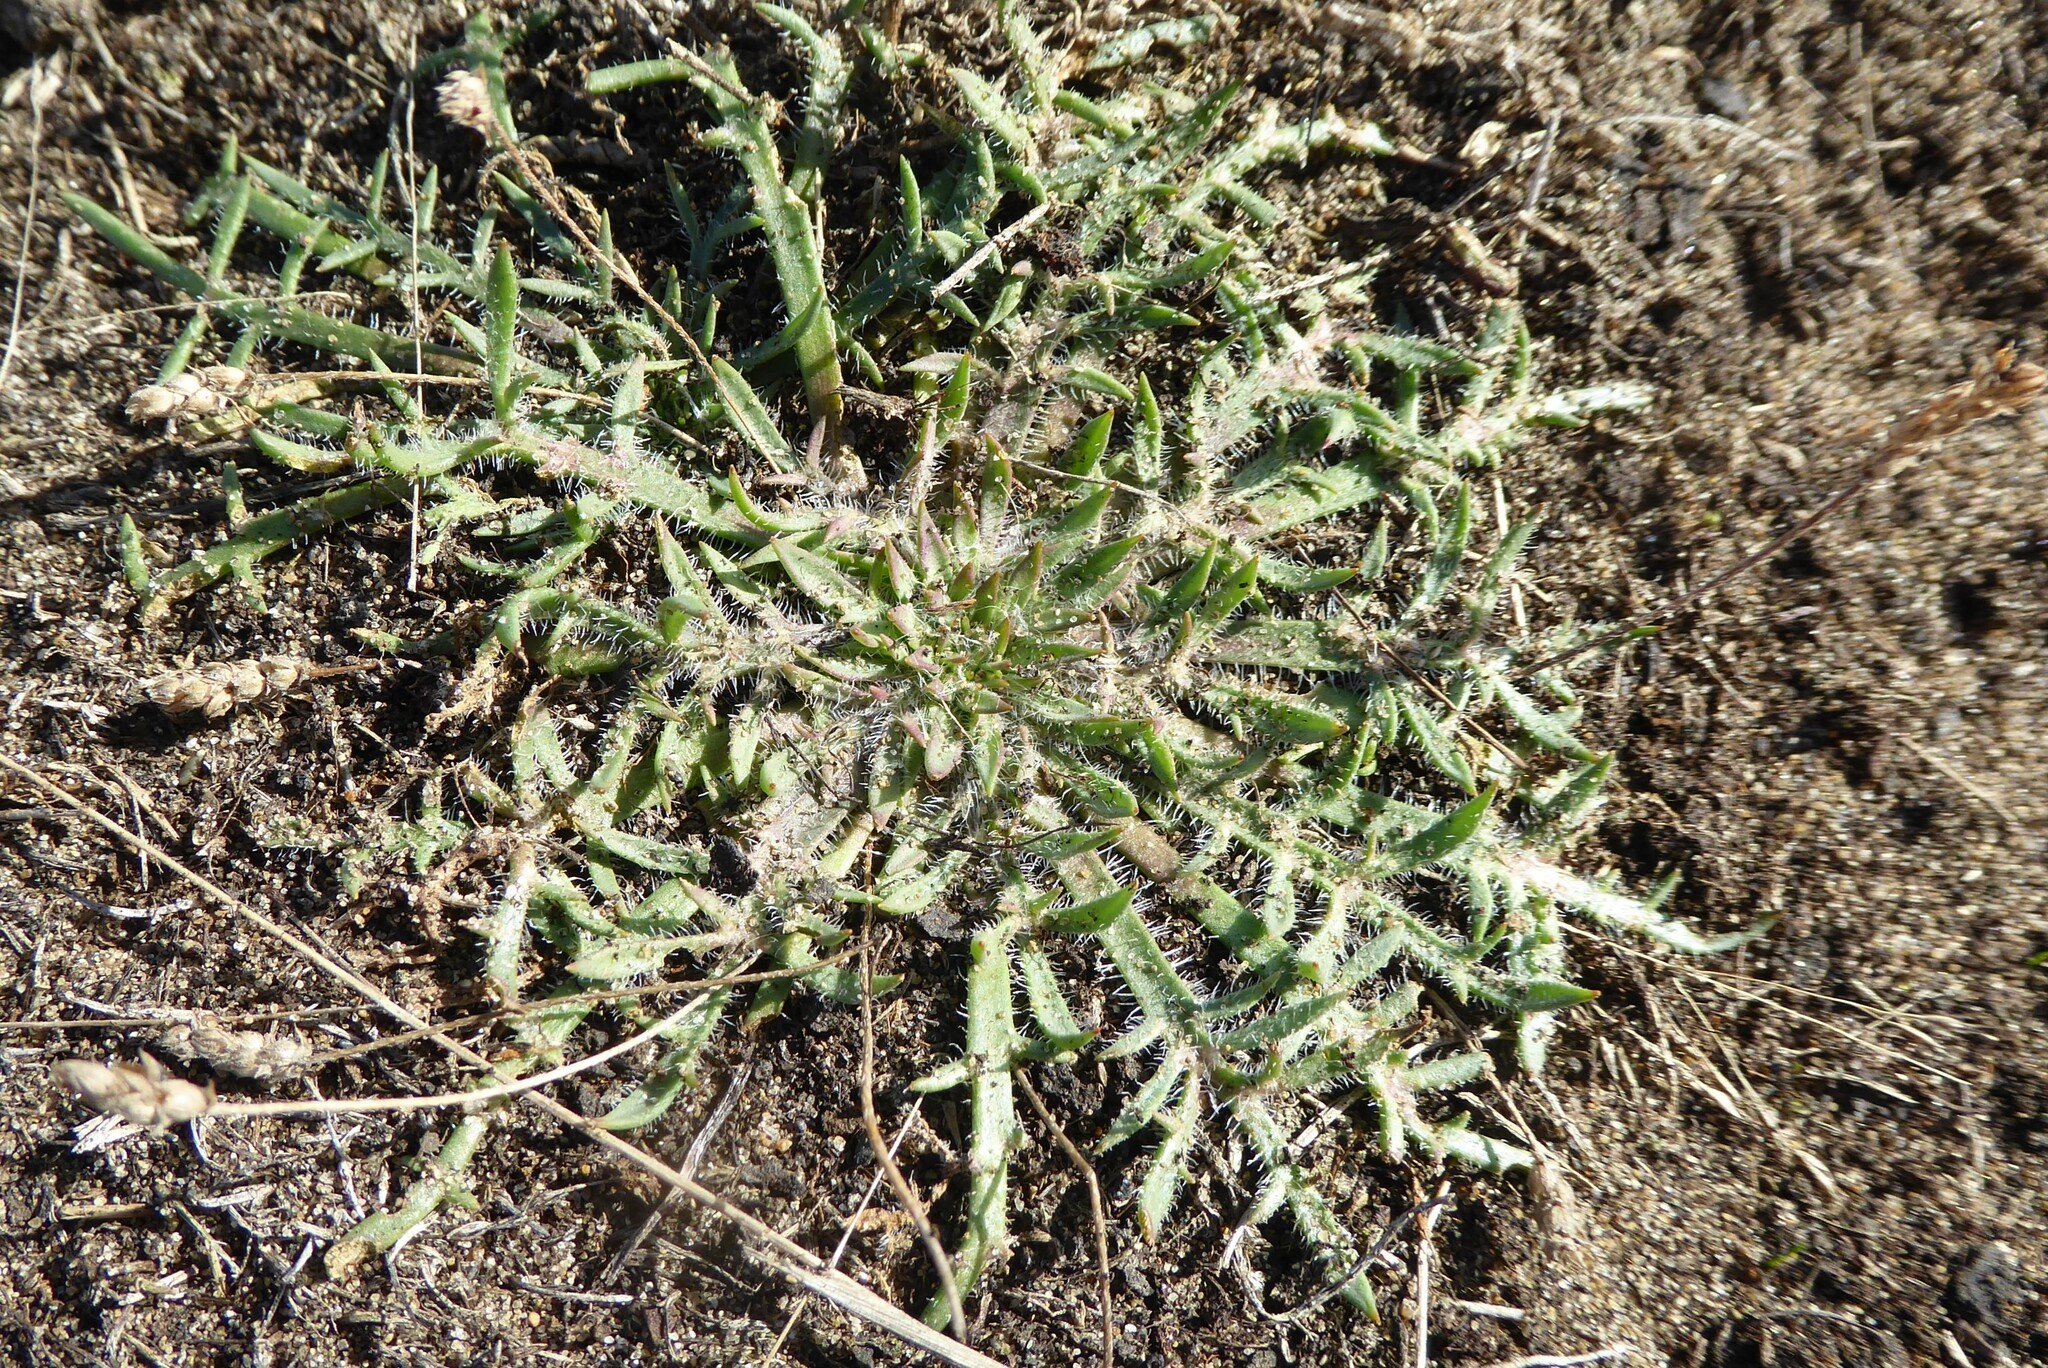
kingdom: Plantae
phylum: Tracheophyta
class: Magnoliopsida
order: Lamiales
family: Plantaginaceae
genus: Plantago
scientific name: Plantago coronopus
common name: Buck's-horn plantain
